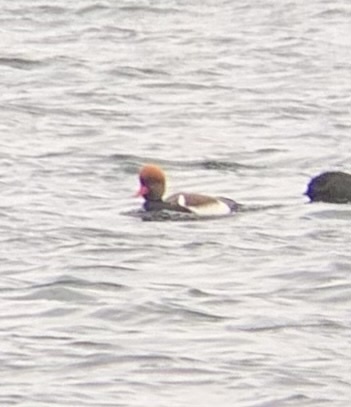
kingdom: Animalia
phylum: Chordata
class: Aves
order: Anseriformes
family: Anatidae
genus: Netta
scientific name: Netta rufina
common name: Red-crested pochard
